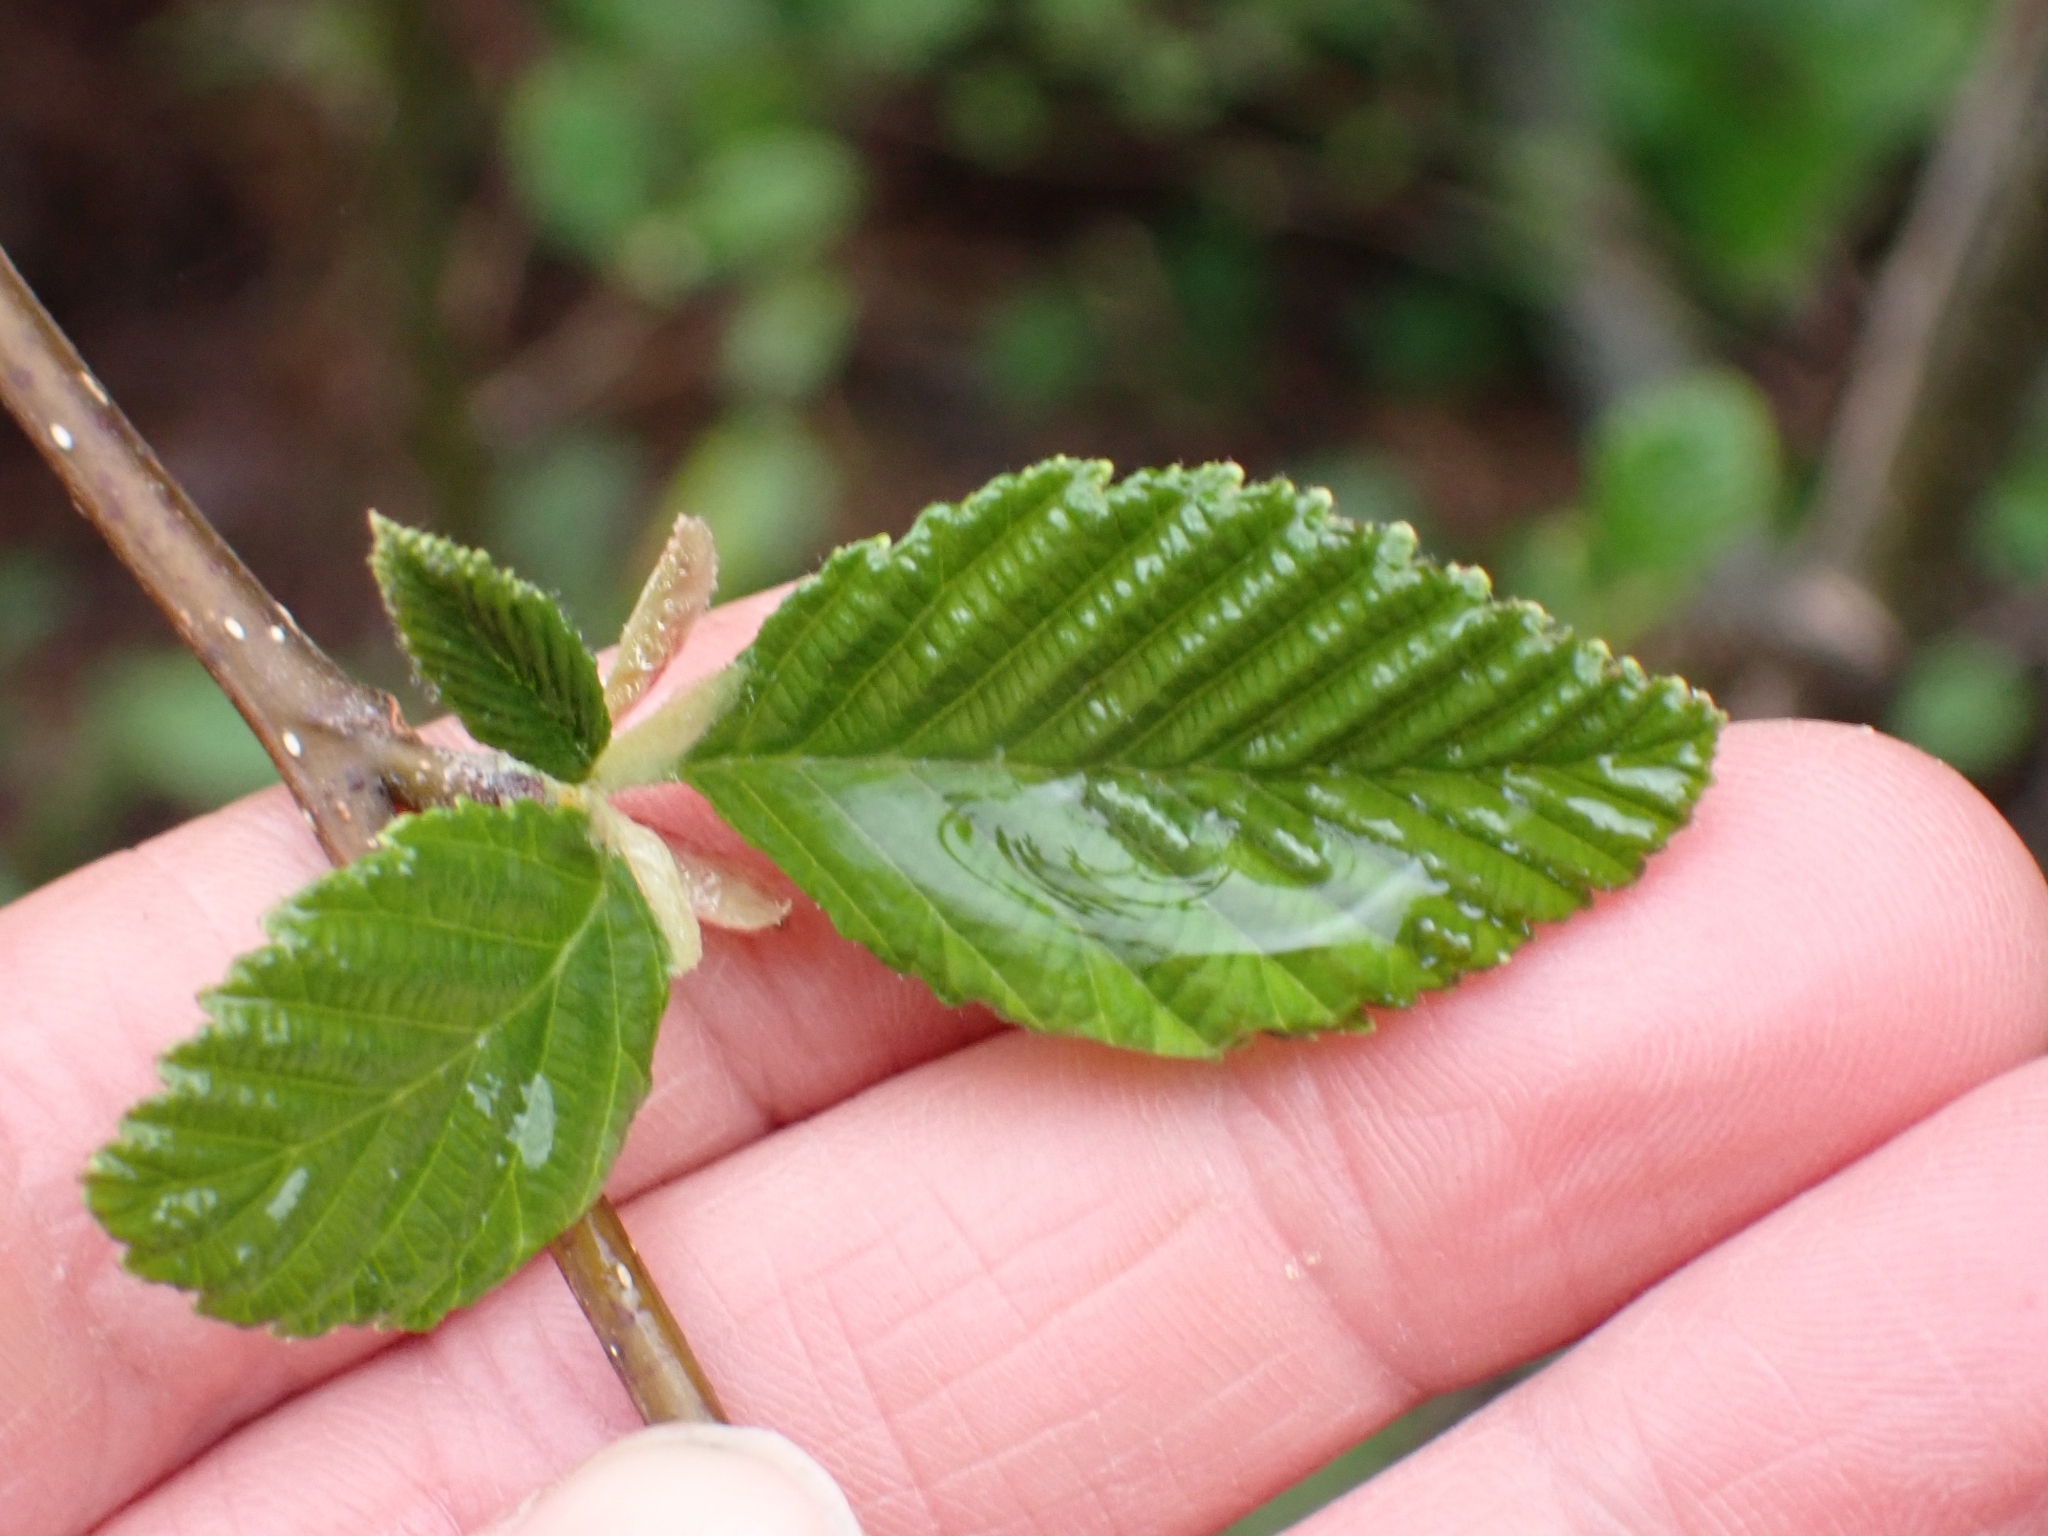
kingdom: Plantae
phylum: Tracheophyta
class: Magnoliopsida
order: Fagales
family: Betulaceae
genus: Alnus
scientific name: Alnus rubra
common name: Red alder
